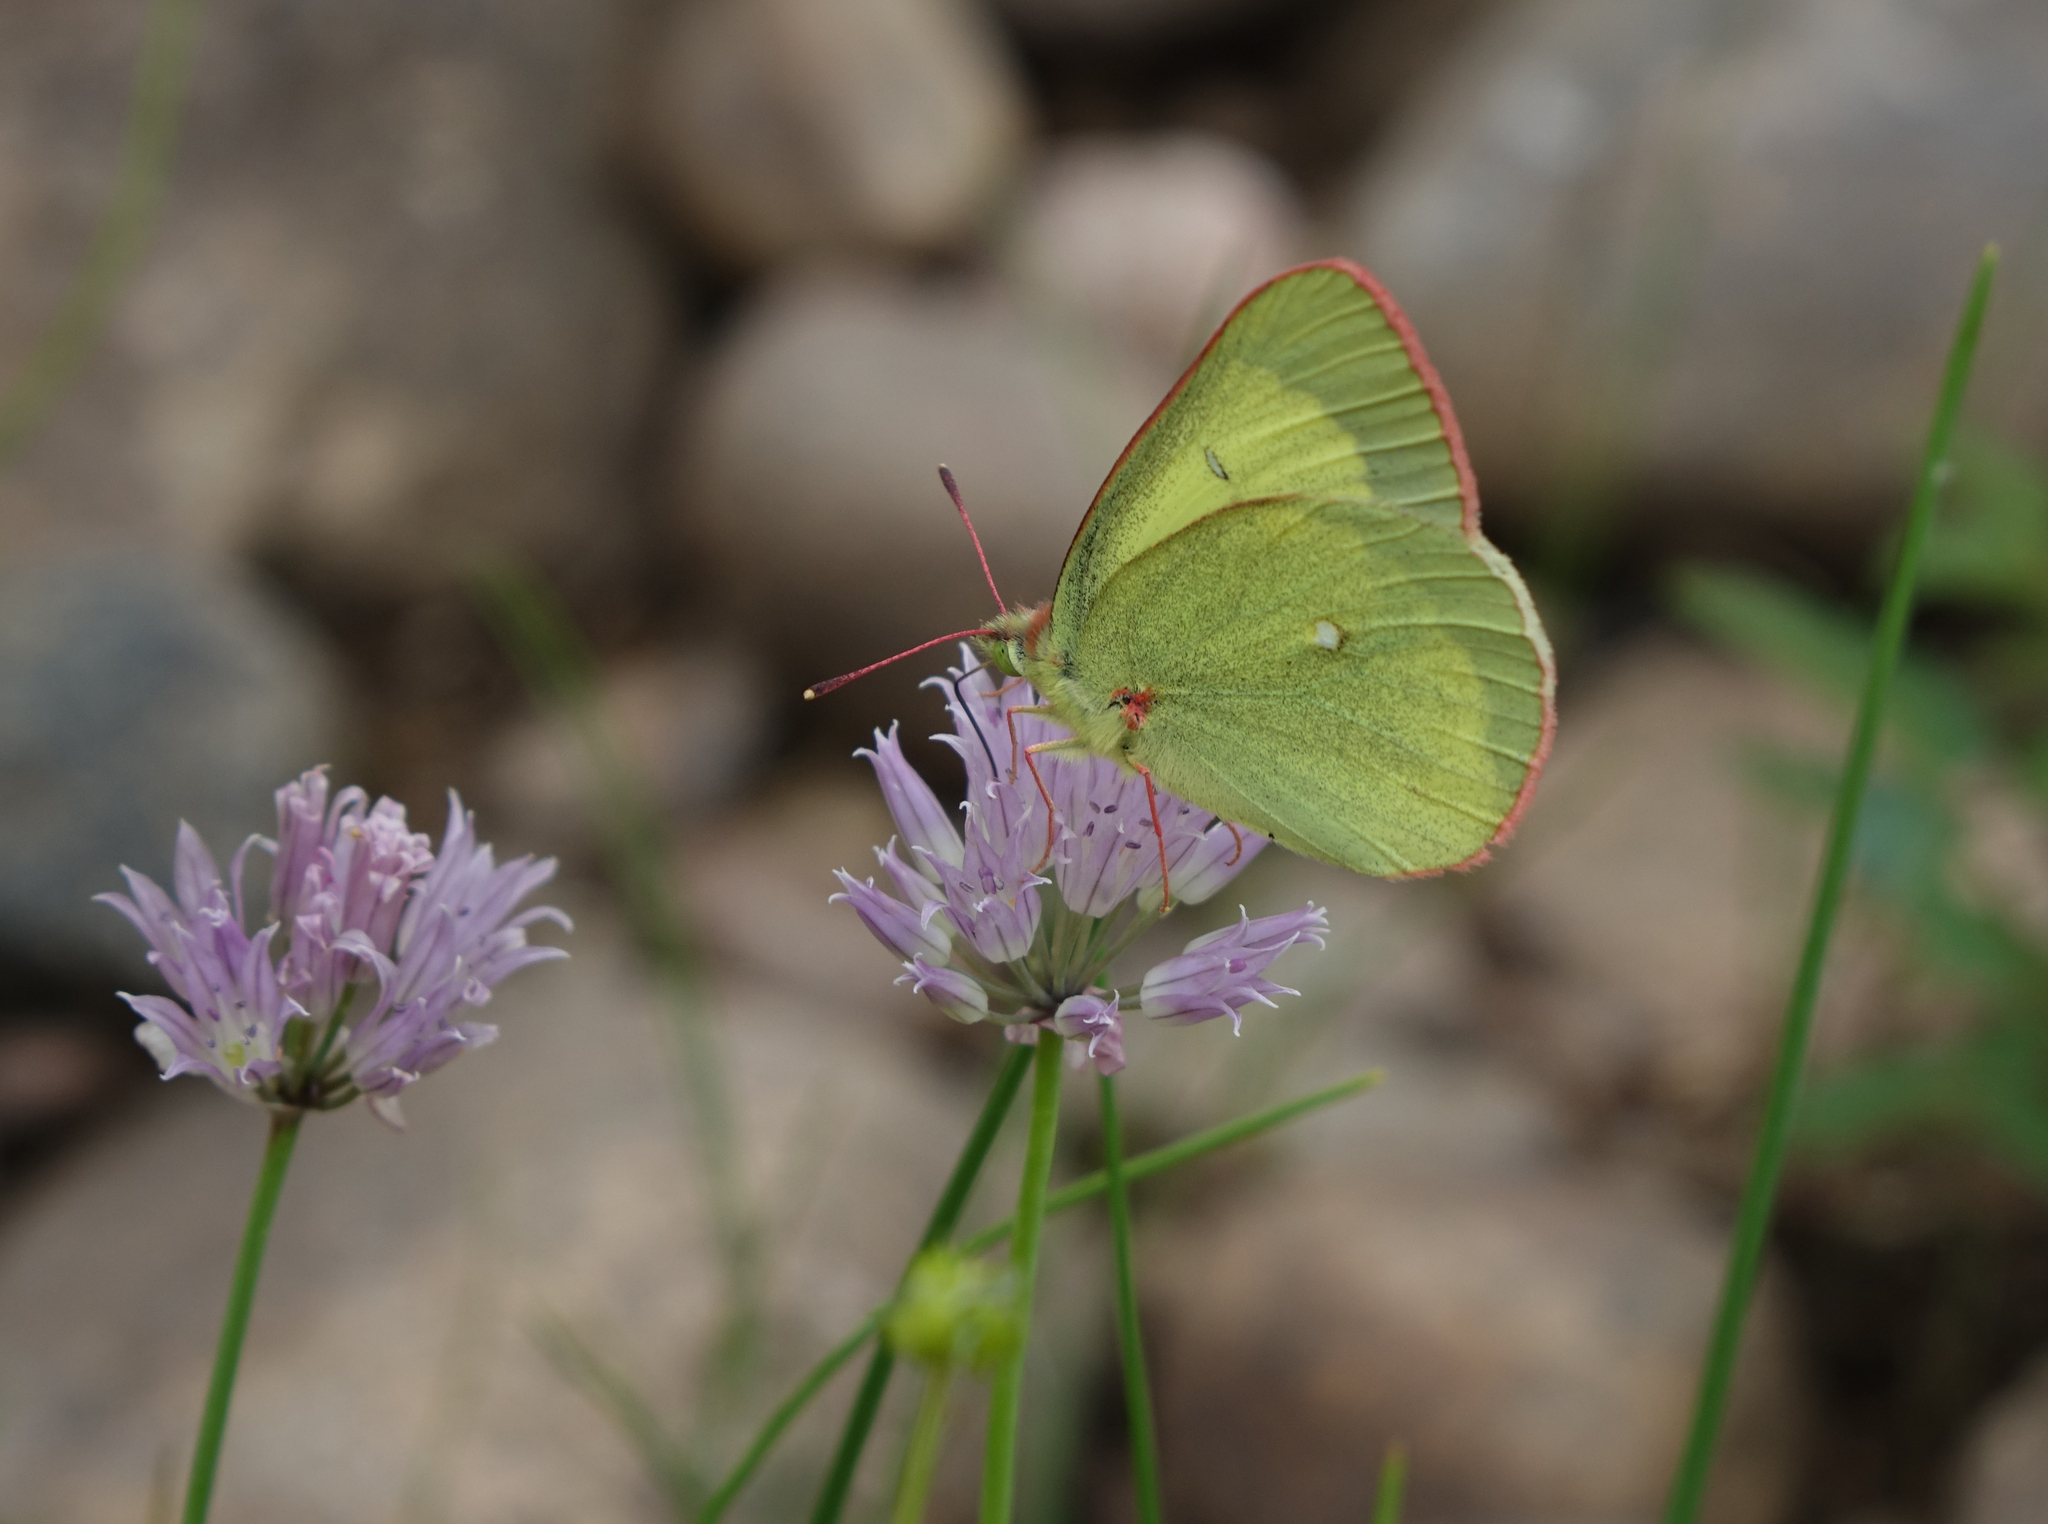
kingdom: Plantae
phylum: Tracheophyta
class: Liliopsida
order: Asparagales
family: Amaryllidaceae
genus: Allium
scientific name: Allium schoenoprasum
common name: Chives
